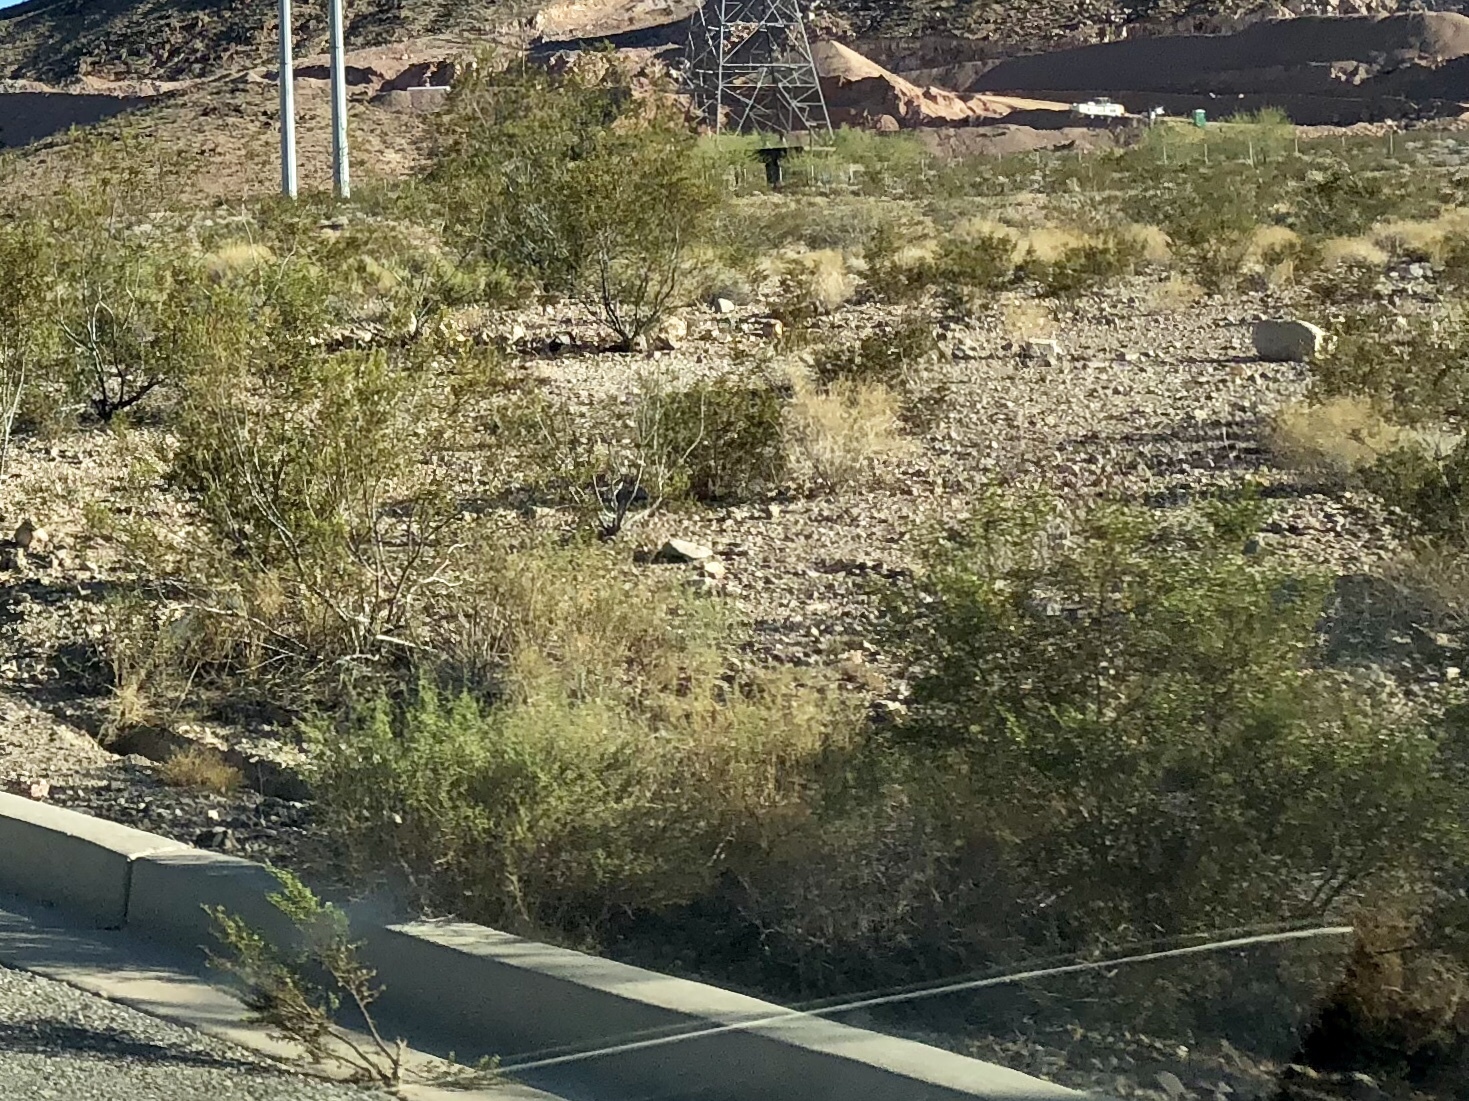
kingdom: Plantae
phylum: Tracheophyta
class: Magnoliopsida
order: Zygophyllales
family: Zygophyllaceae
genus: Larrea
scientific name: Larrea tridentata
